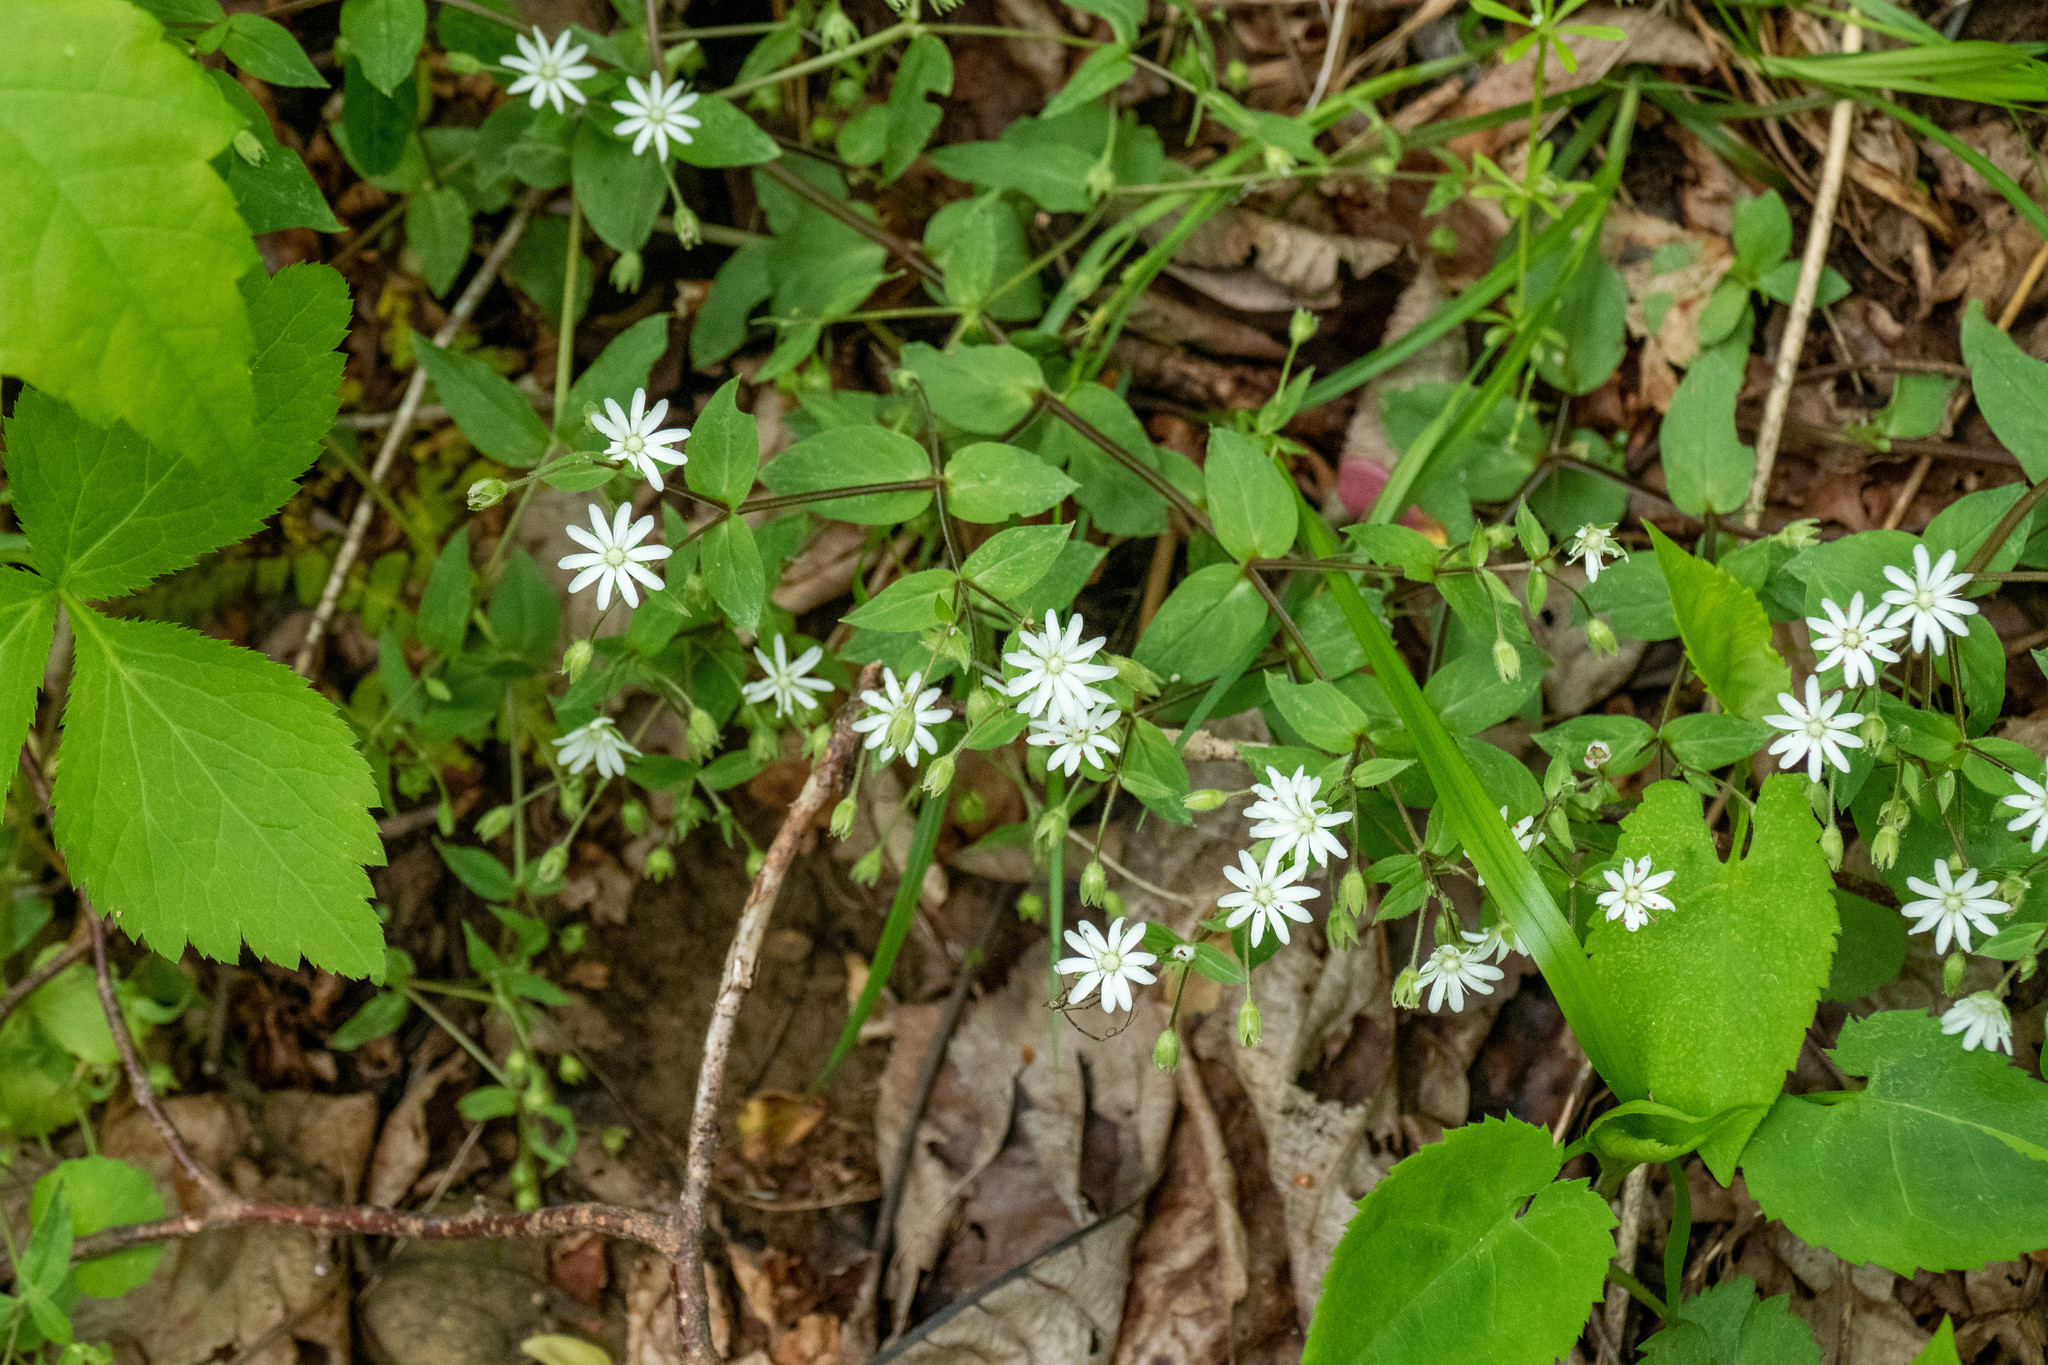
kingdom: Plantae
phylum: Tracheophyta
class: Magnoliopsida
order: Caryophyllales
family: Caryophyllaceae
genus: Stellaria
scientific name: Stellaria pubera
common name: Star chickweed
